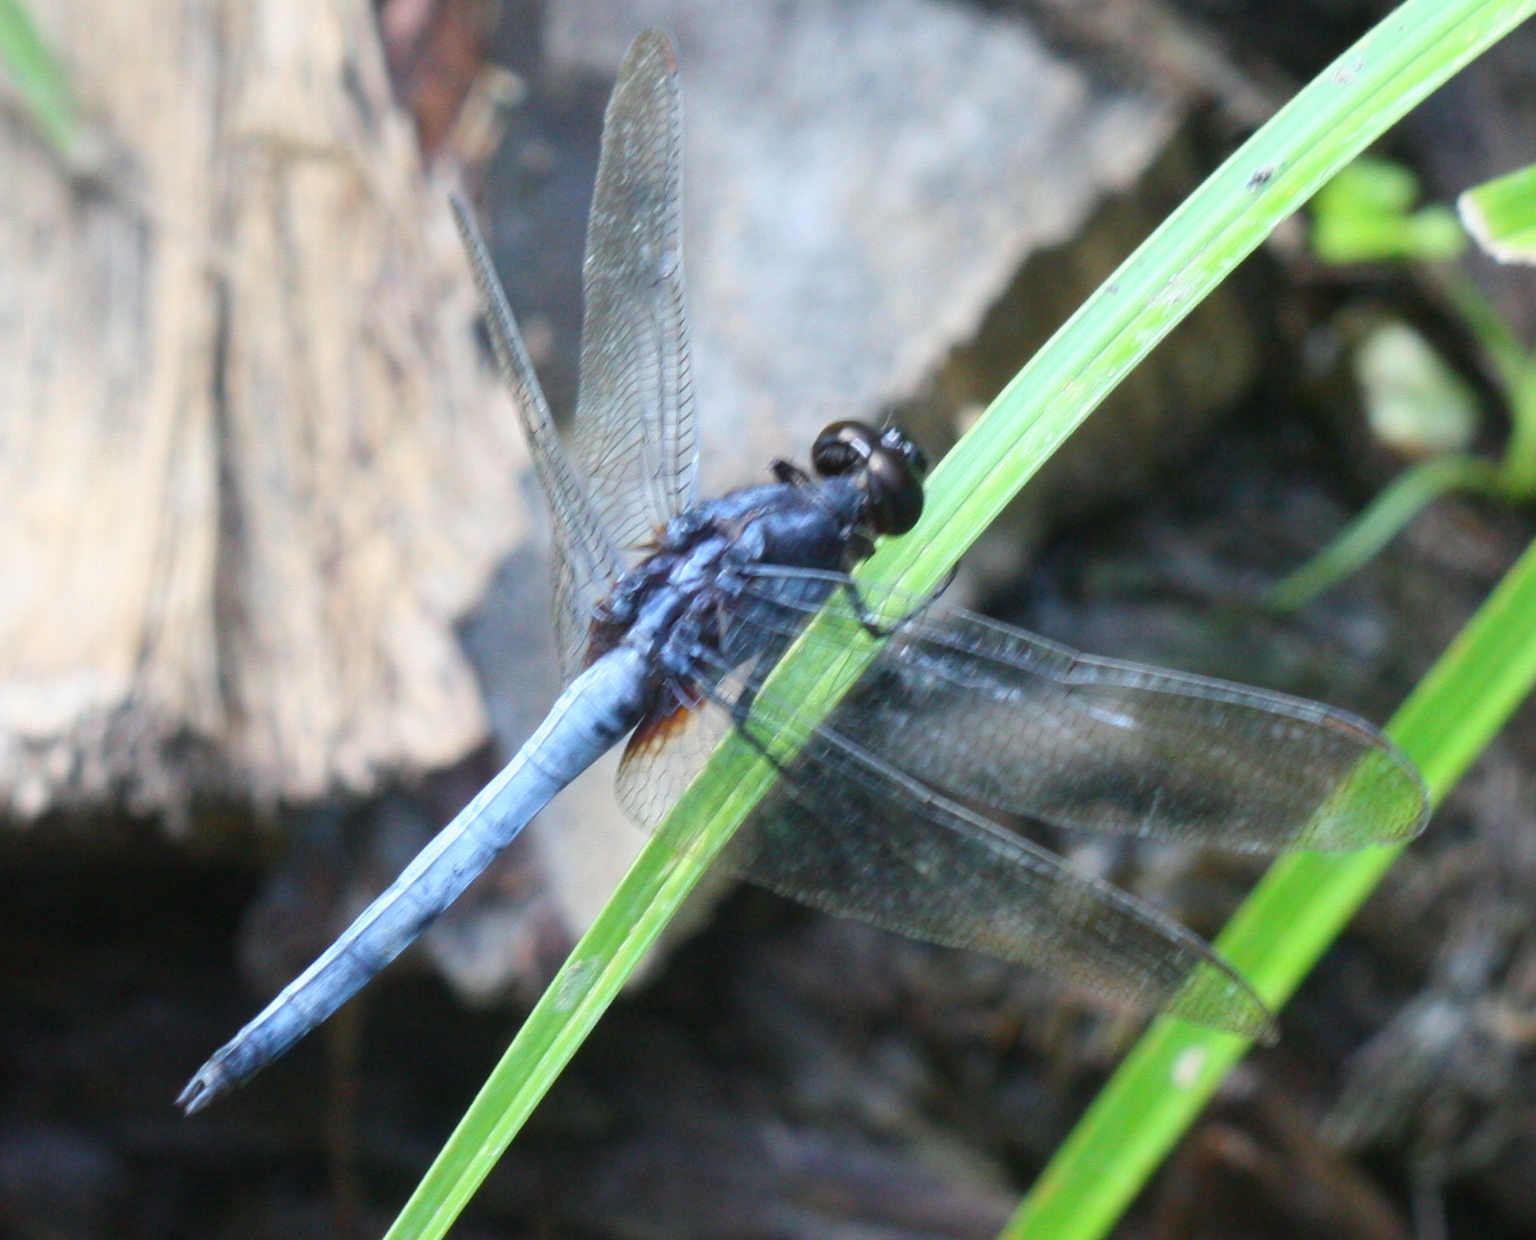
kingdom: Animalia
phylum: Arthropoda
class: Insecta
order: Odonata
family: Libellulidae
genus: Orthetrum
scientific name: Orthetrum glaucum
